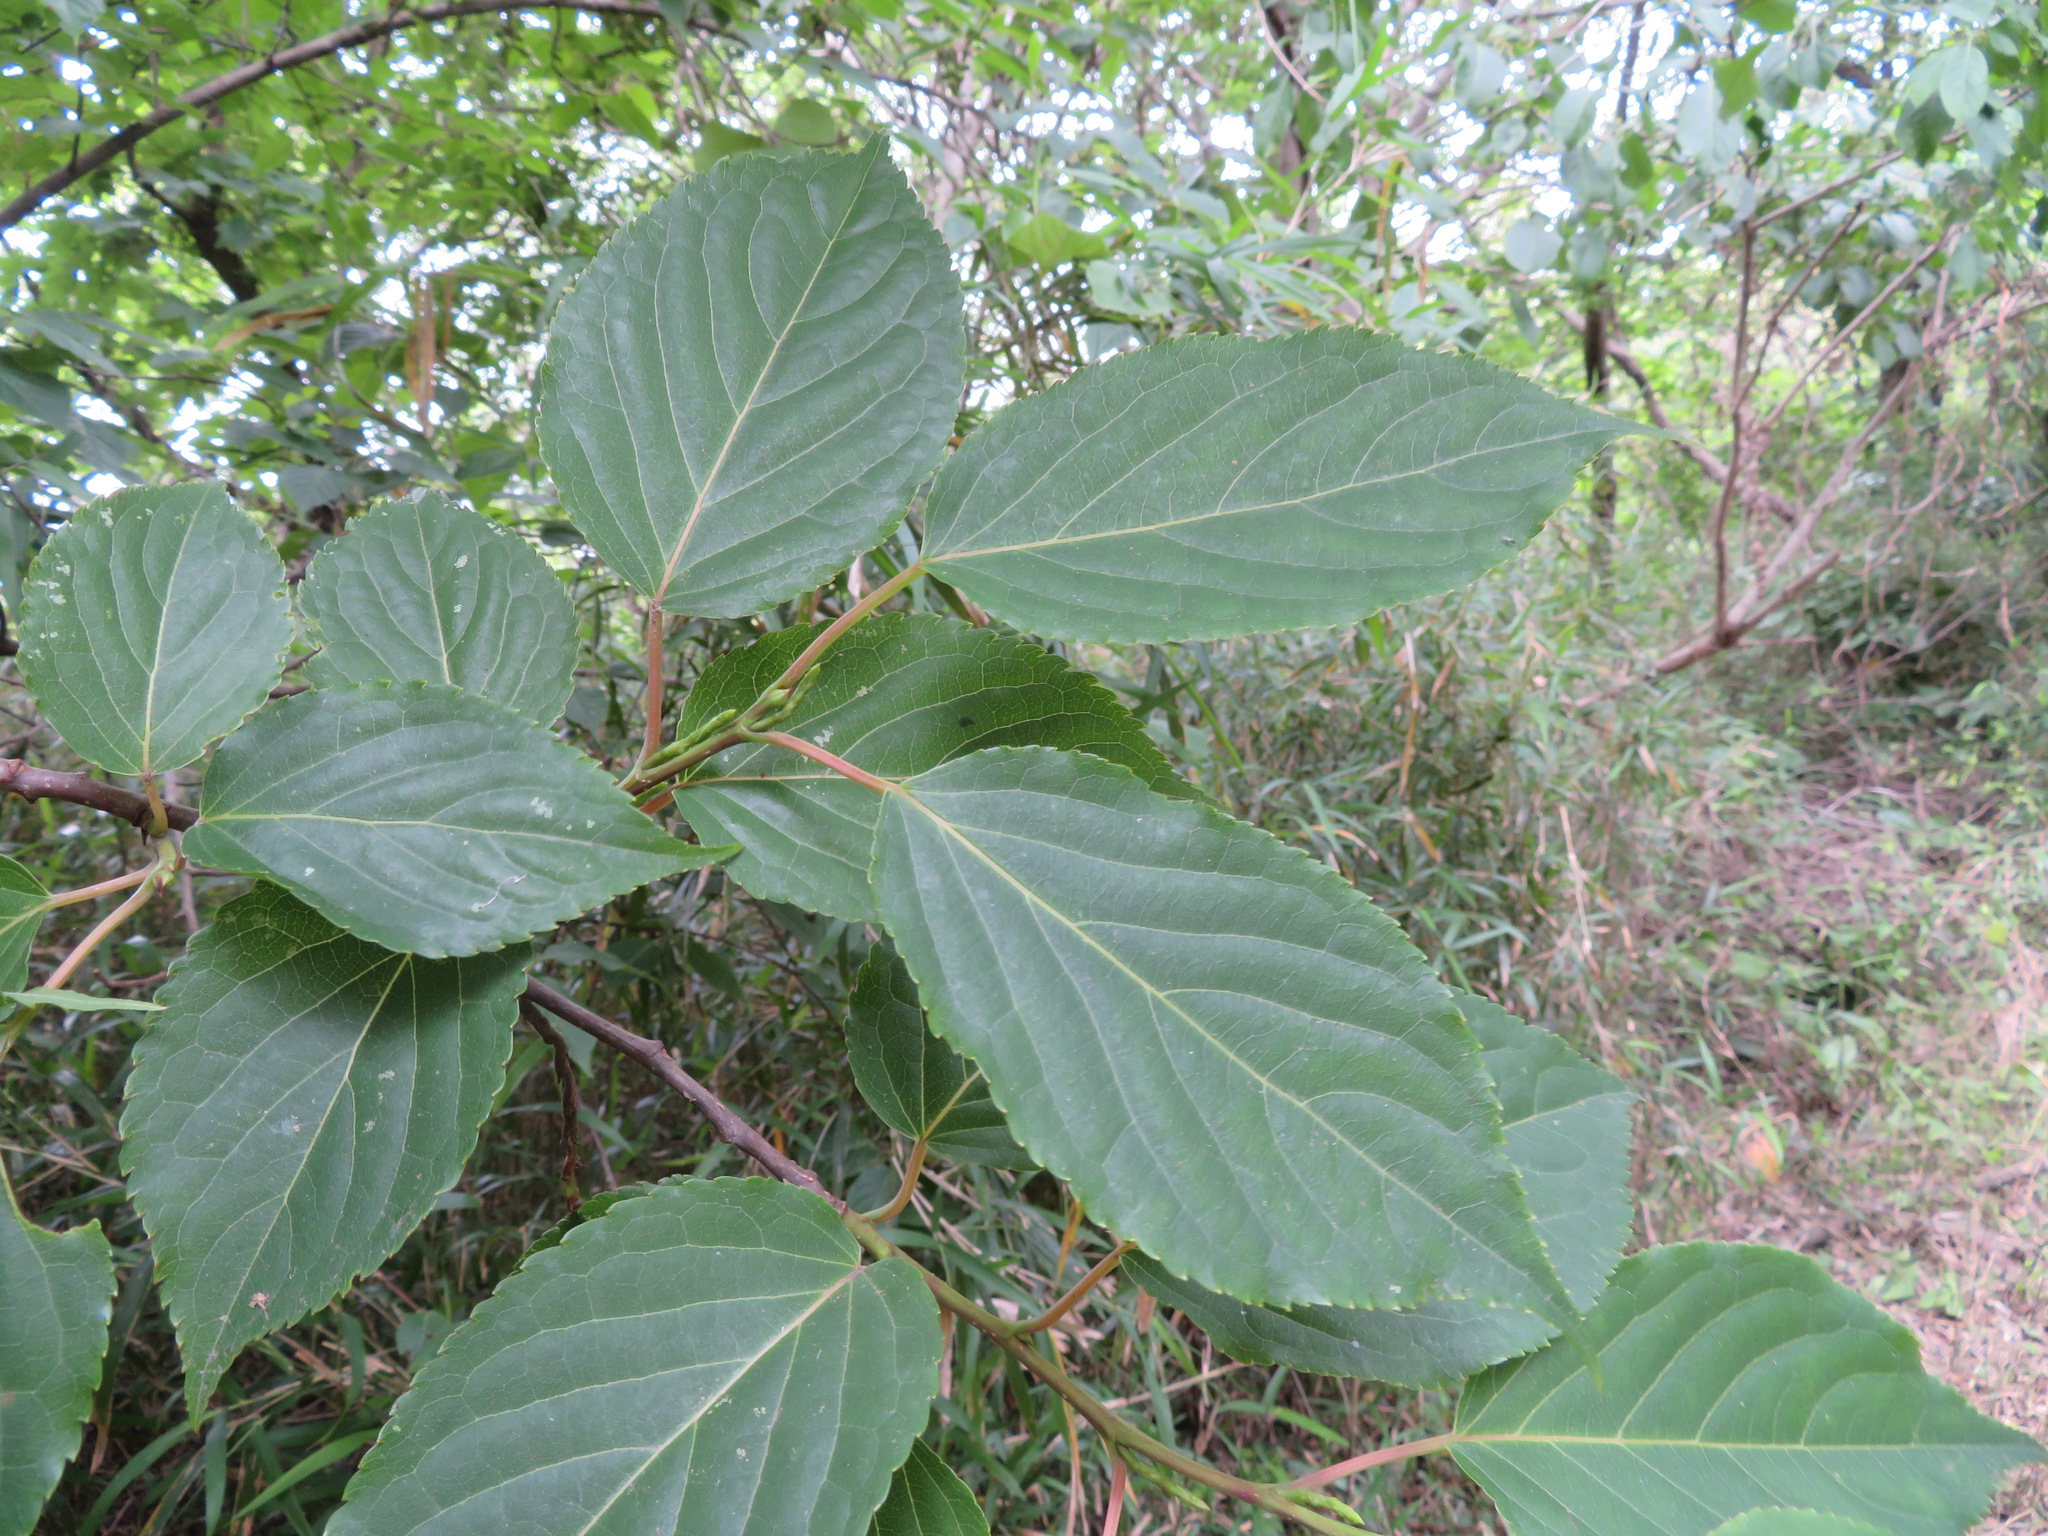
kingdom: Plantae
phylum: Tracheophyta
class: Magnoliopsida
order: Crossosomatales
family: Stachyuraceae
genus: Stachyurus
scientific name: Stachyurus praecox
